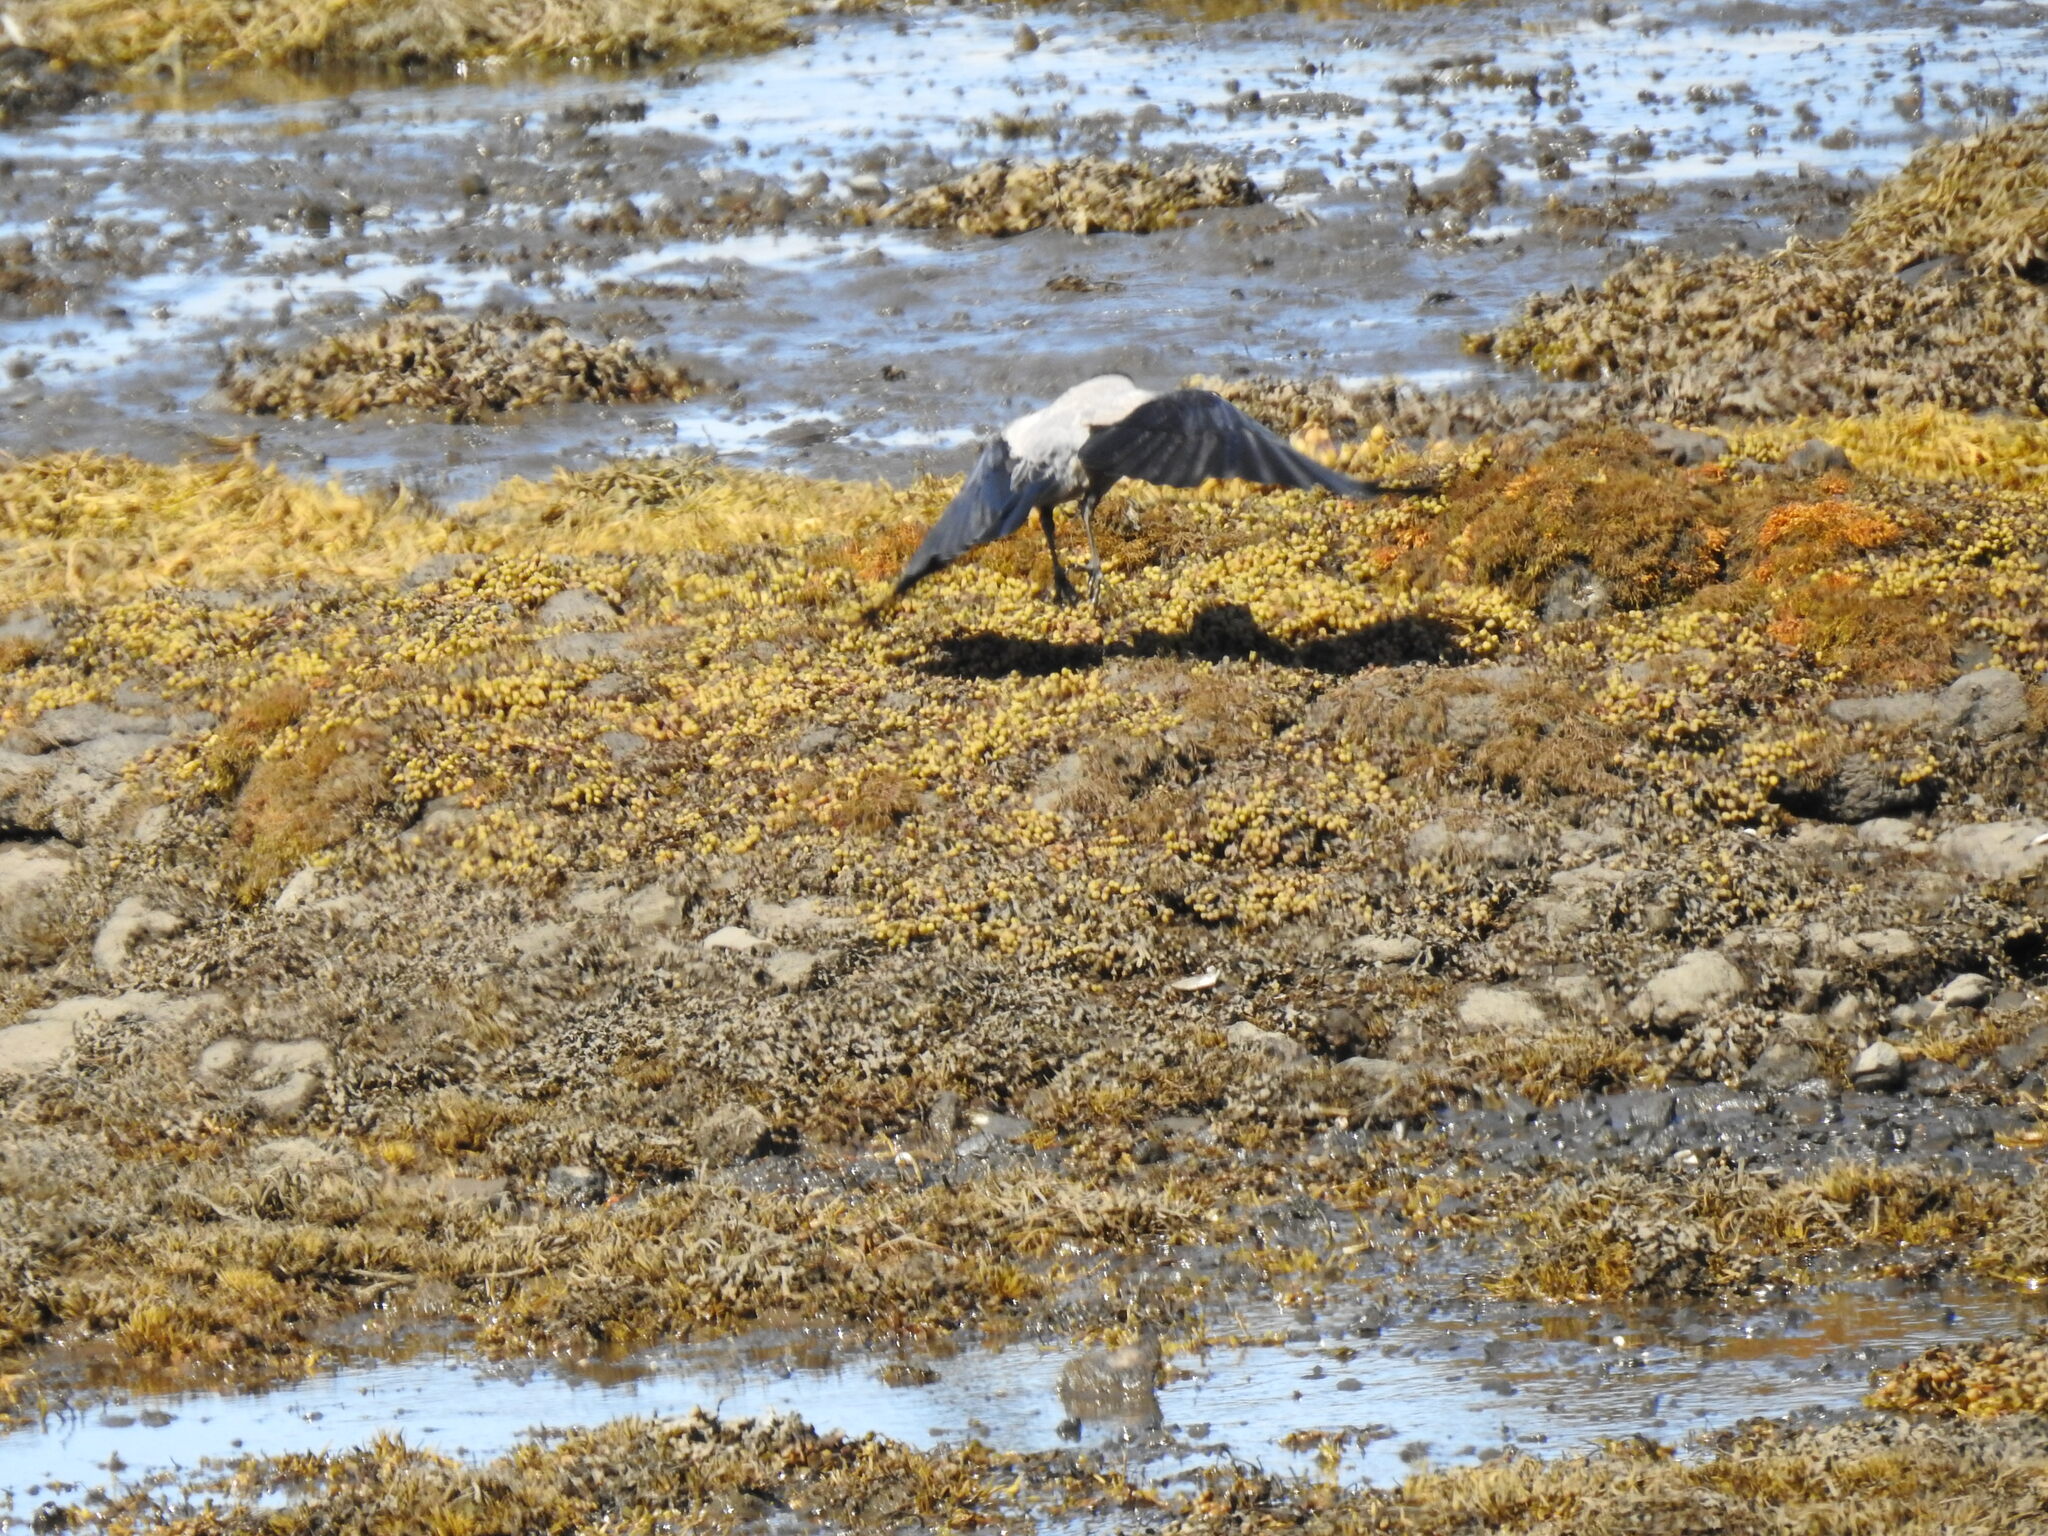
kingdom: Animalia
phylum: Chordata
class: Aves
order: Passeriformes
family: Corvidae
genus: Corvus
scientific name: Corvus cornix
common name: Hooded crow
